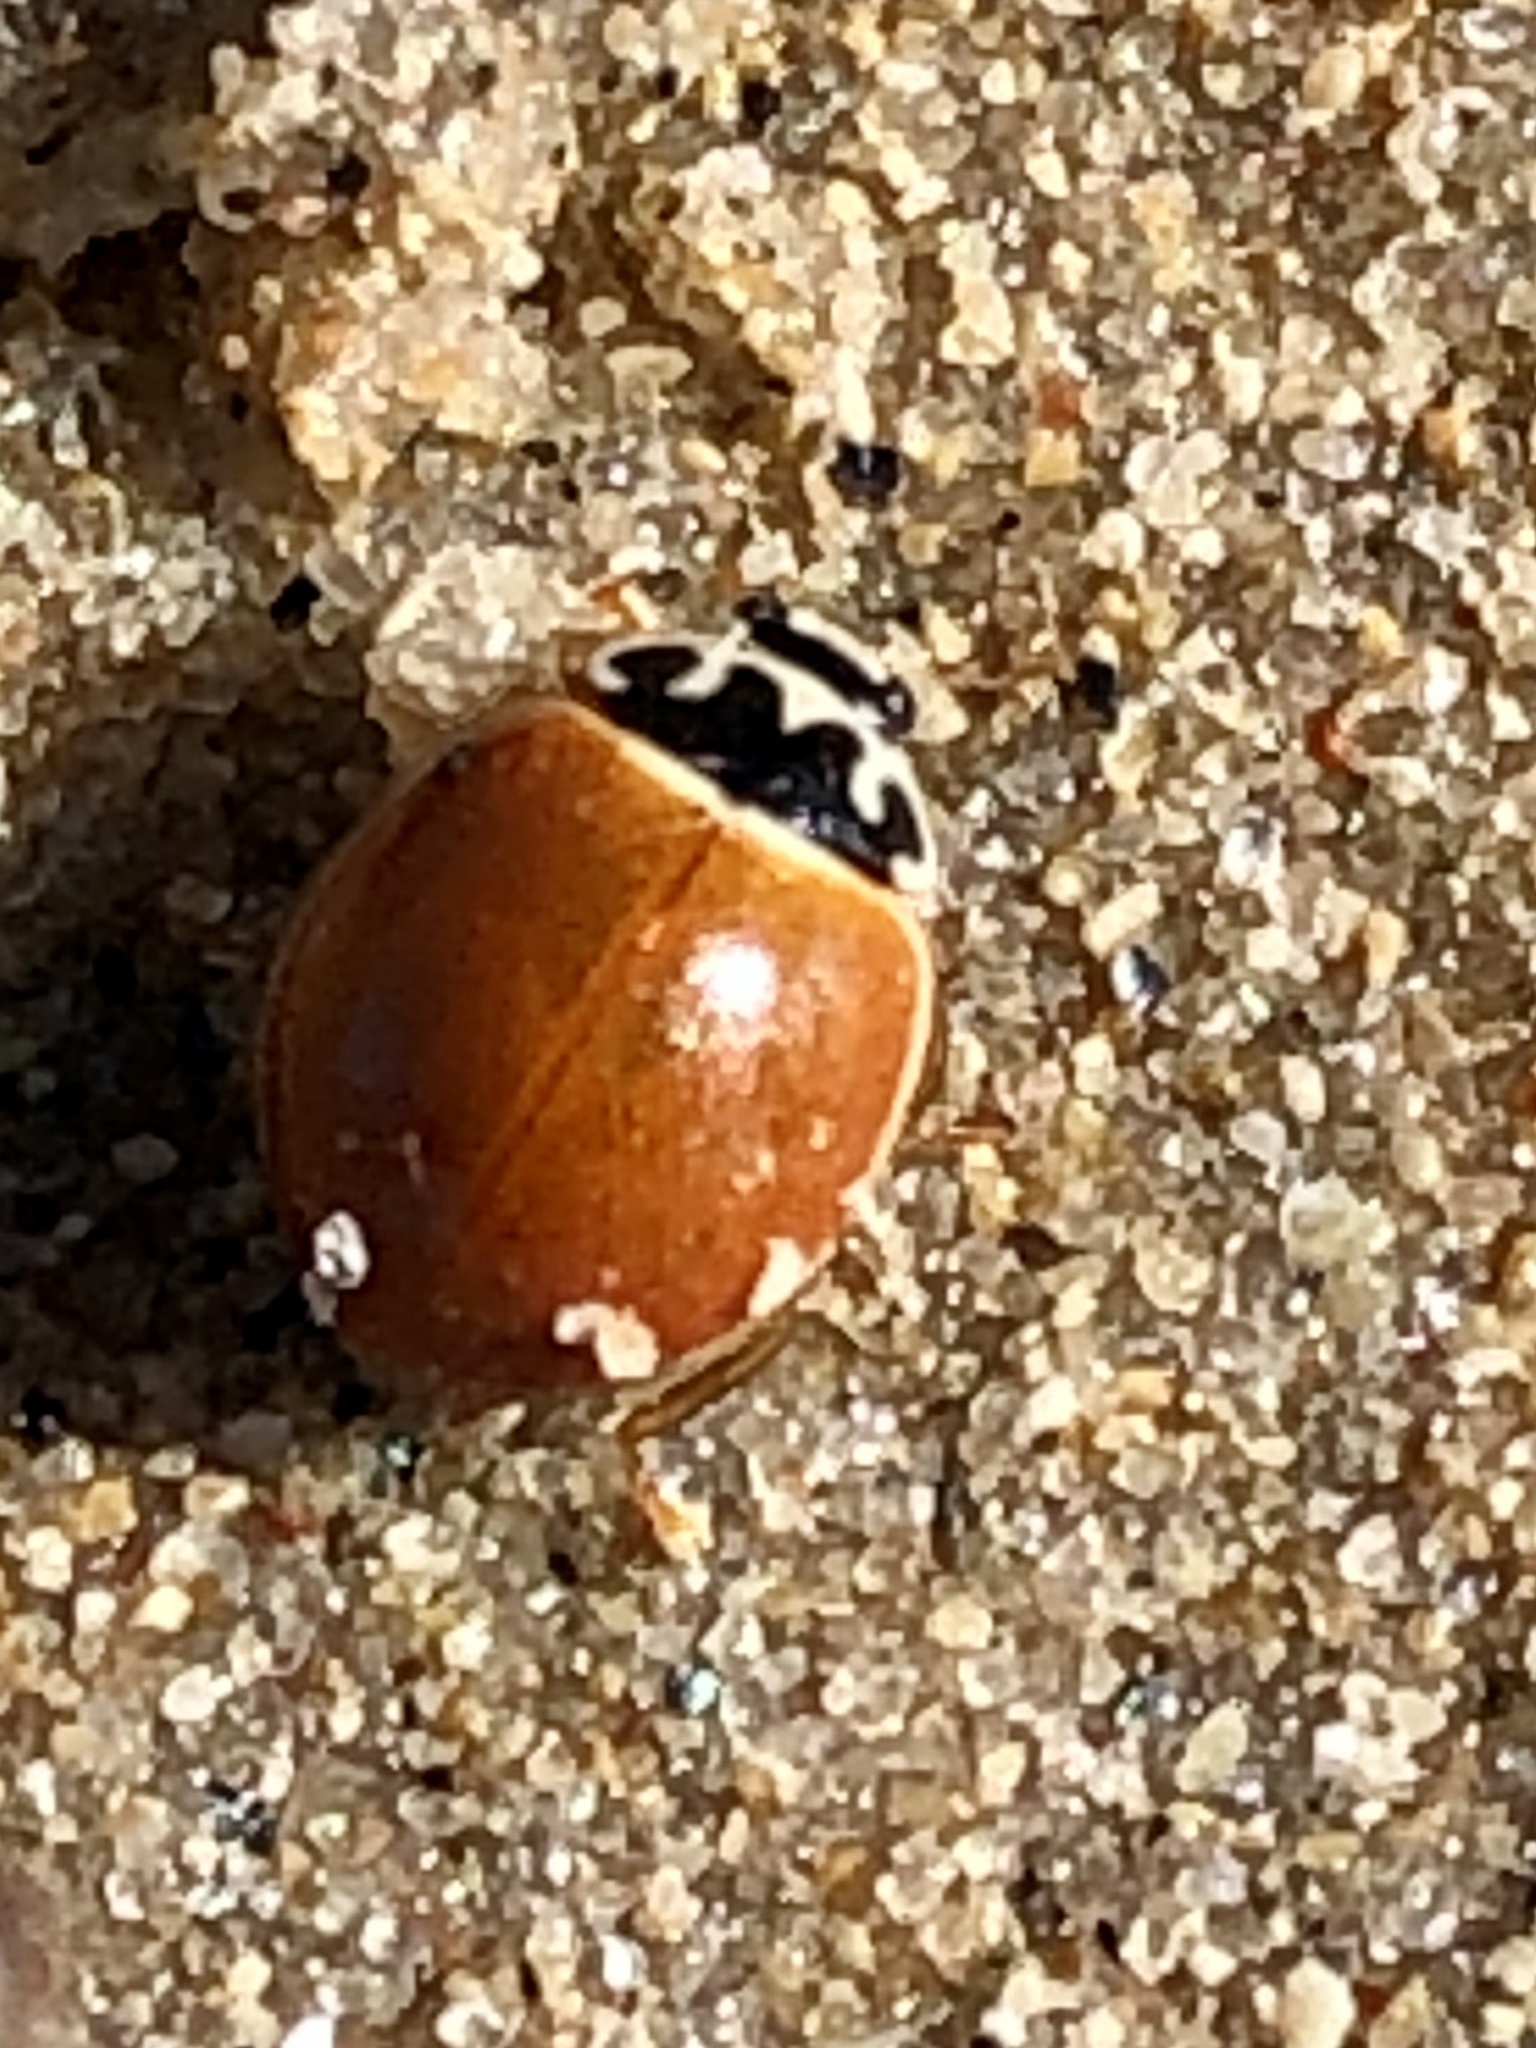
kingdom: Animalia
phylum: Arthropoda
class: Insecta
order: Coleoptera
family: Coccinellidae
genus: Cycloneda
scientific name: Cycloneda munda
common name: Polished lady beetle
